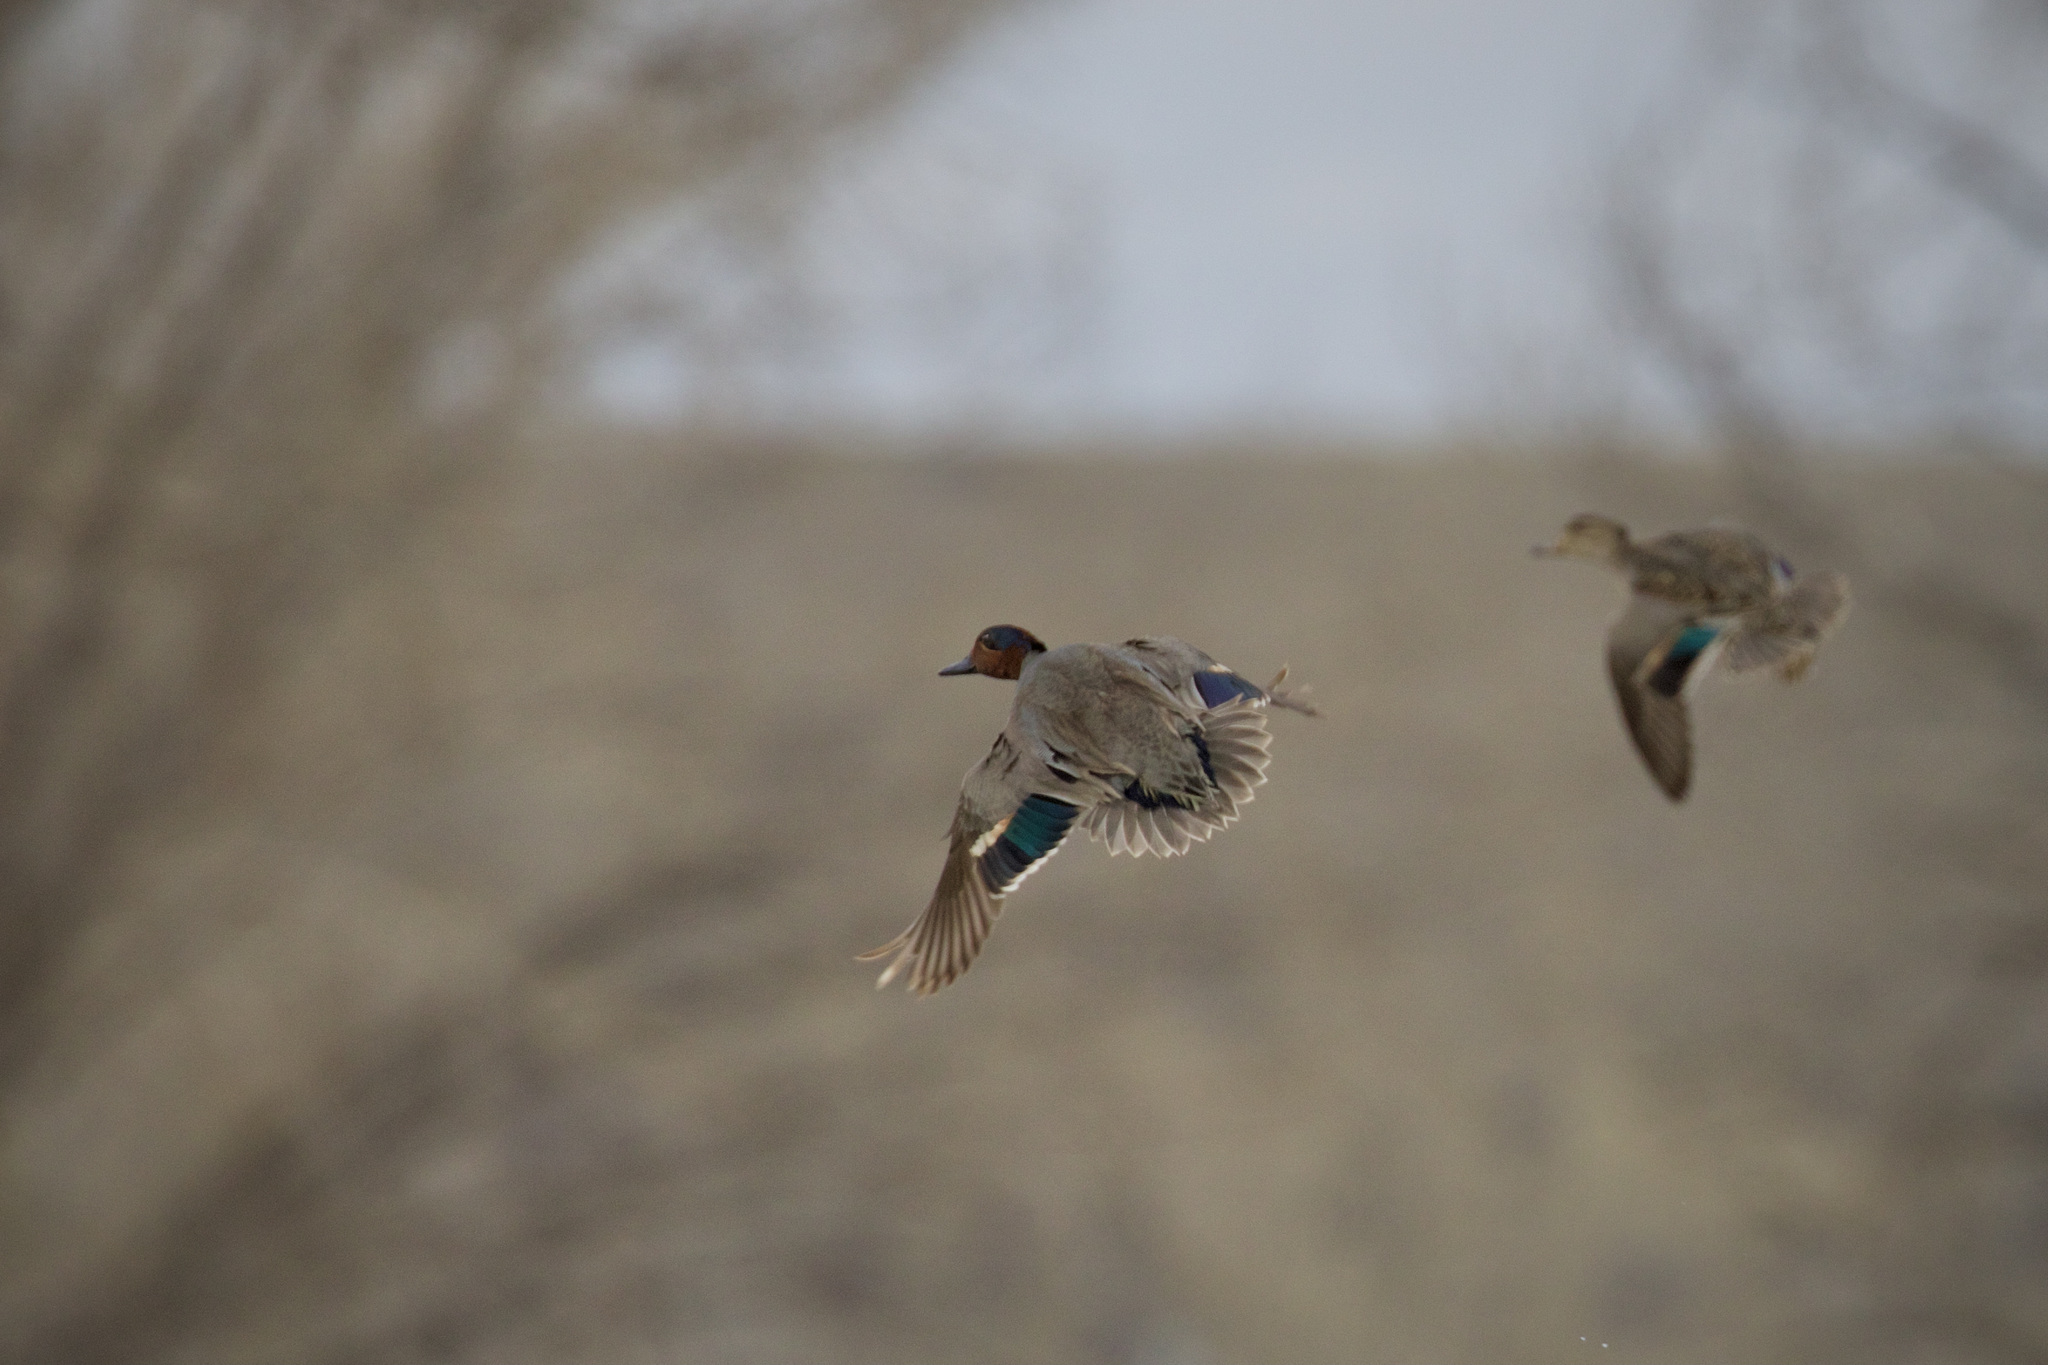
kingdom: Animalia
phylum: Chordata
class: Aves
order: Anseriformes
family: Anatidae
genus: Anas
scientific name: Anas crecca
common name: Eurasian teal
